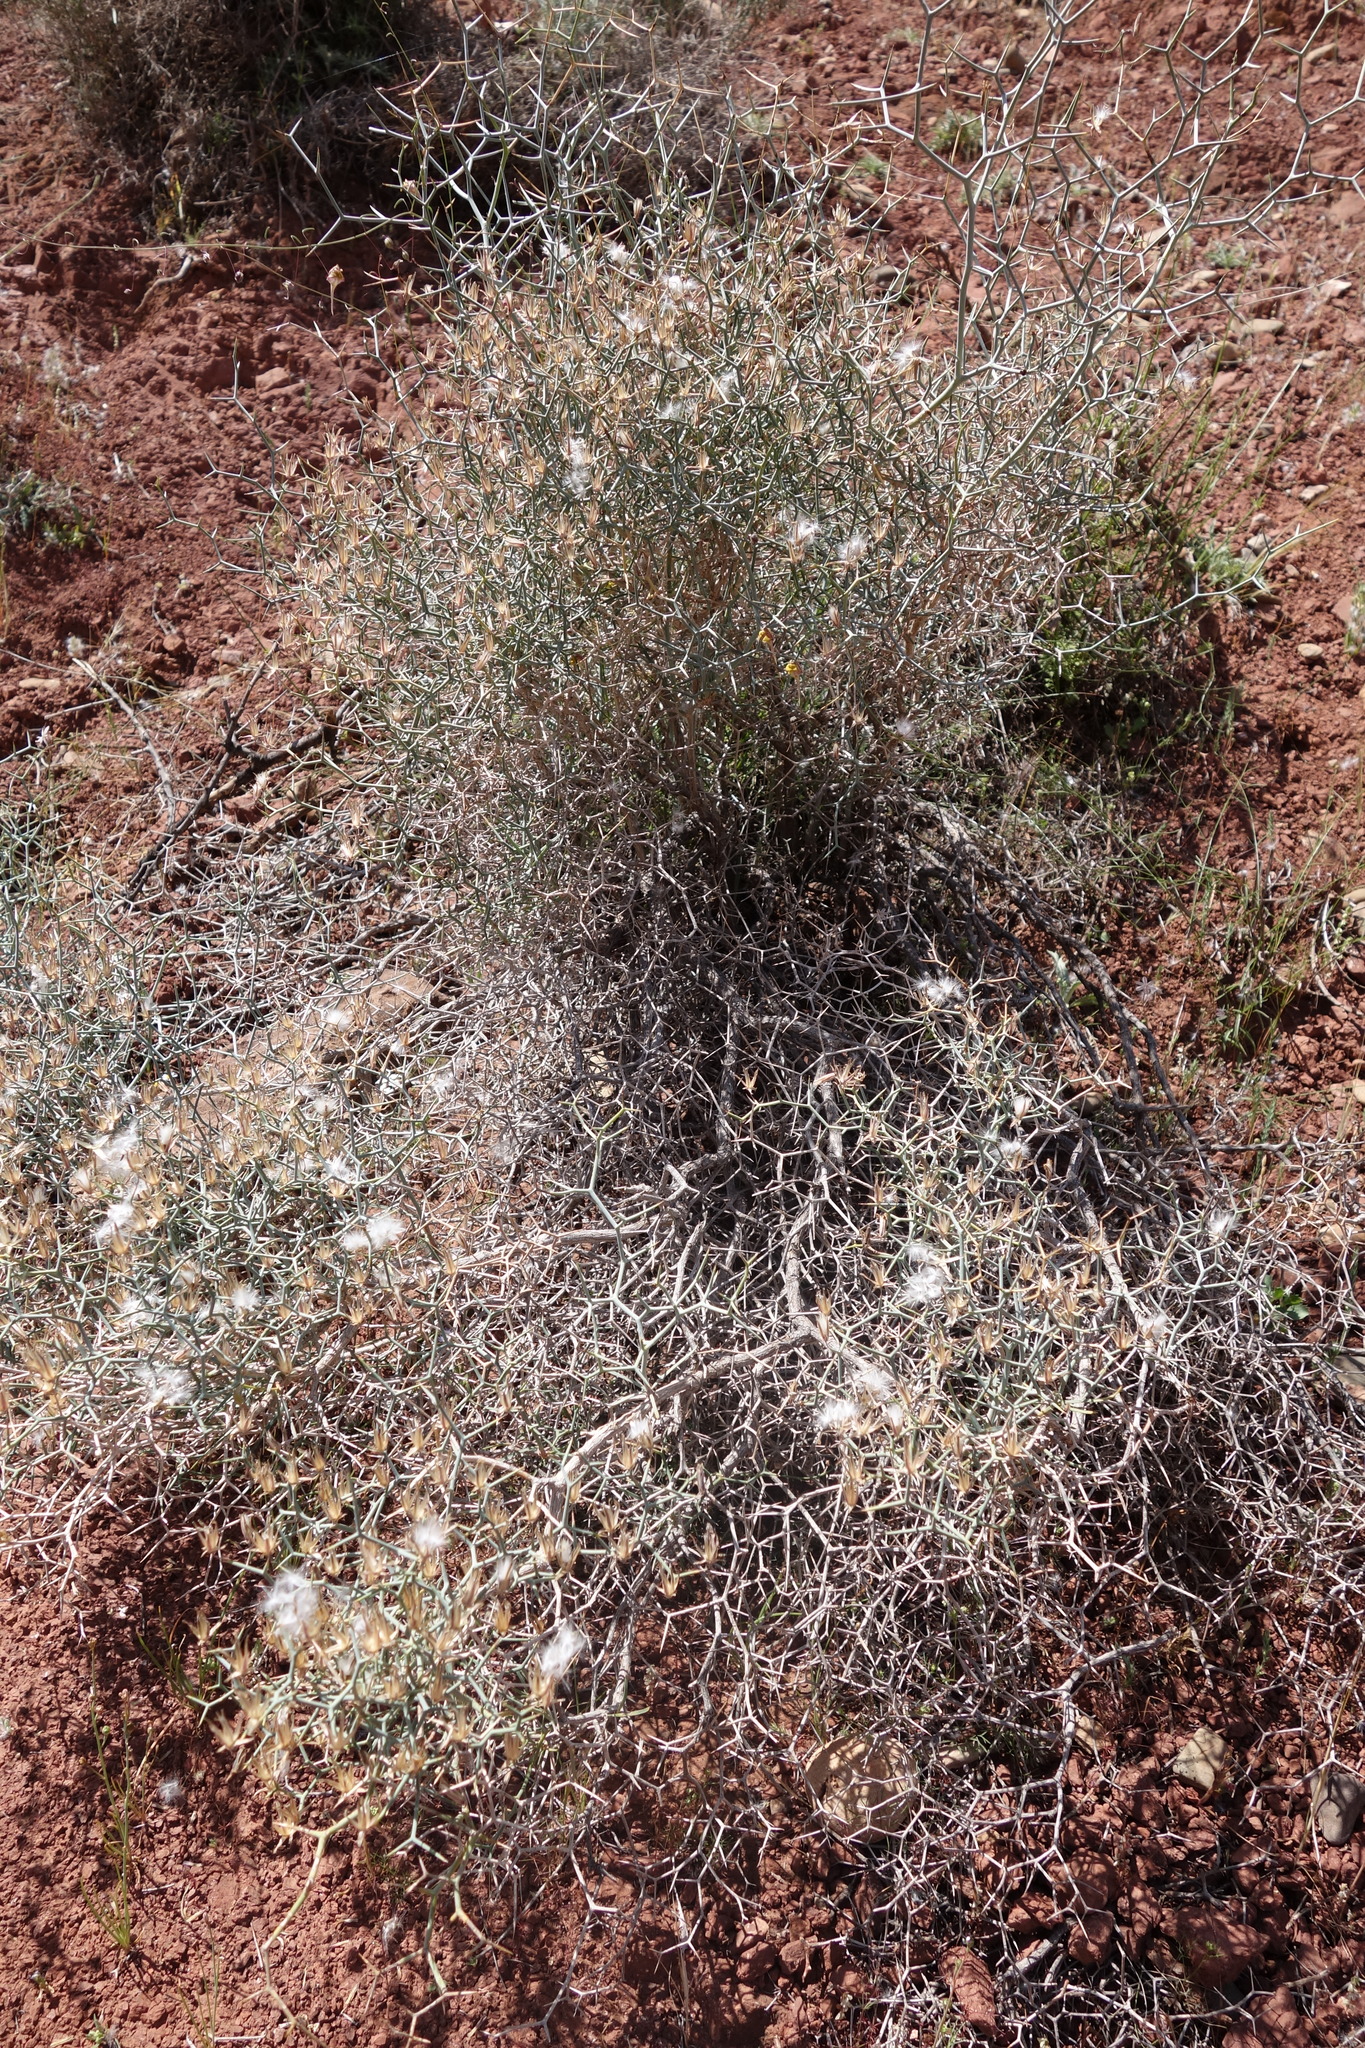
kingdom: Plantae
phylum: Tracheophyta
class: Magnoliopsida
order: Asterales
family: Asteraceae
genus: Launaea
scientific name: Launaea arborescens
